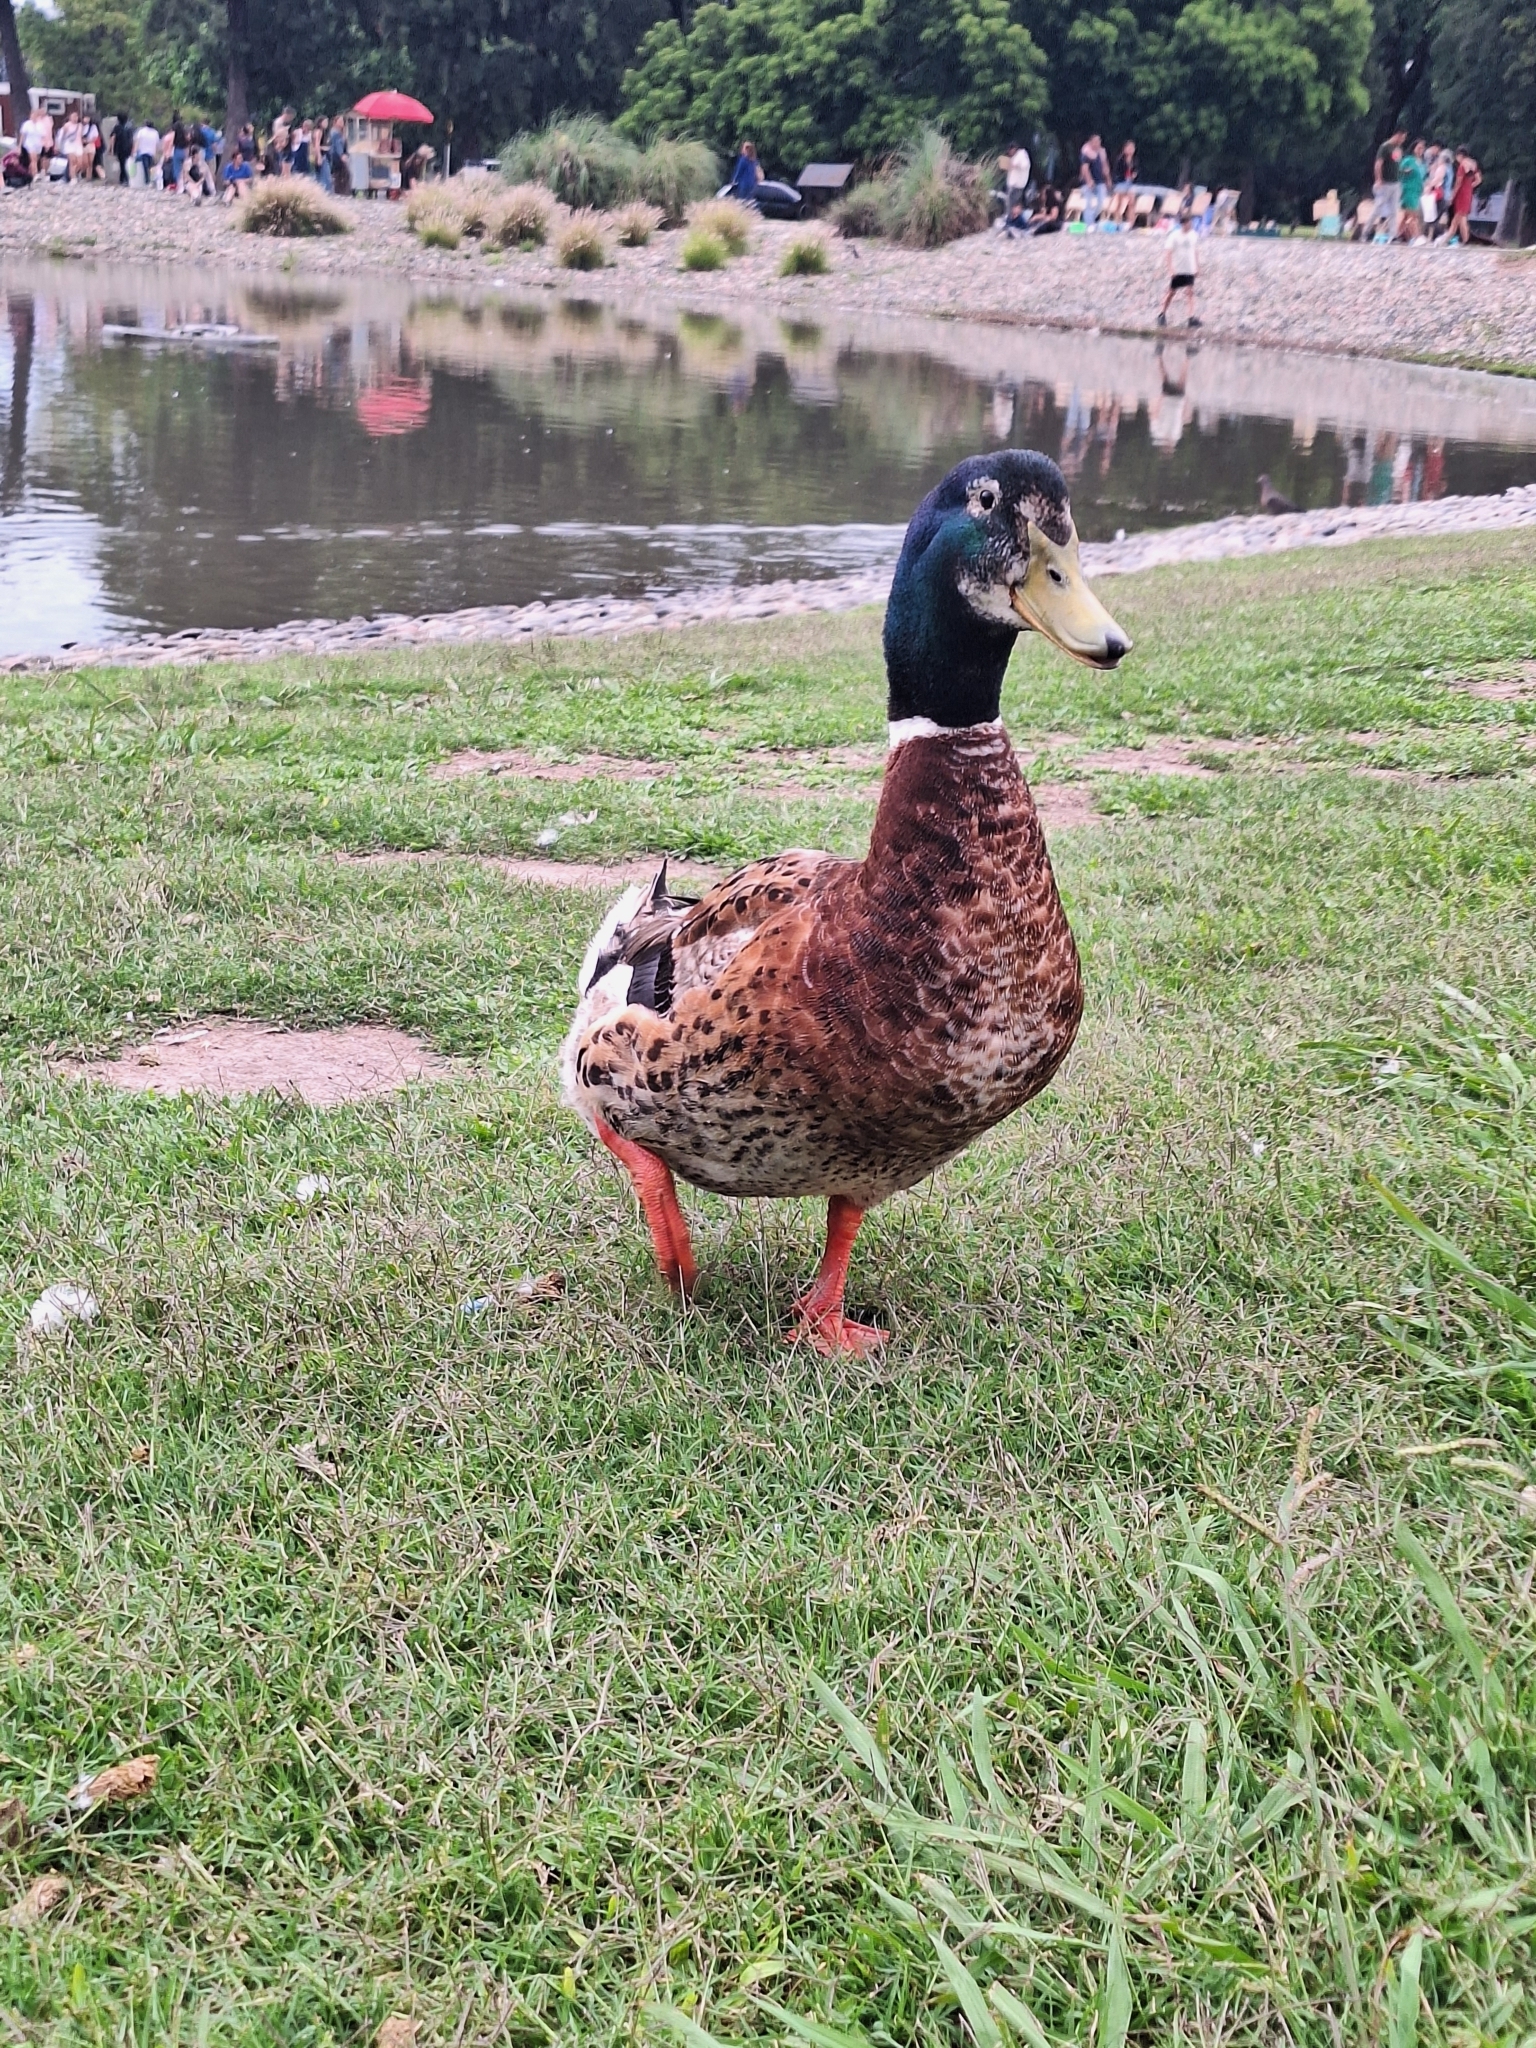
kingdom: Animalia
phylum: Chordata
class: Aves
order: Anseriformes
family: Anatidae
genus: Anas
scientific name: Anas platyrhynchos
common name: Mallard
